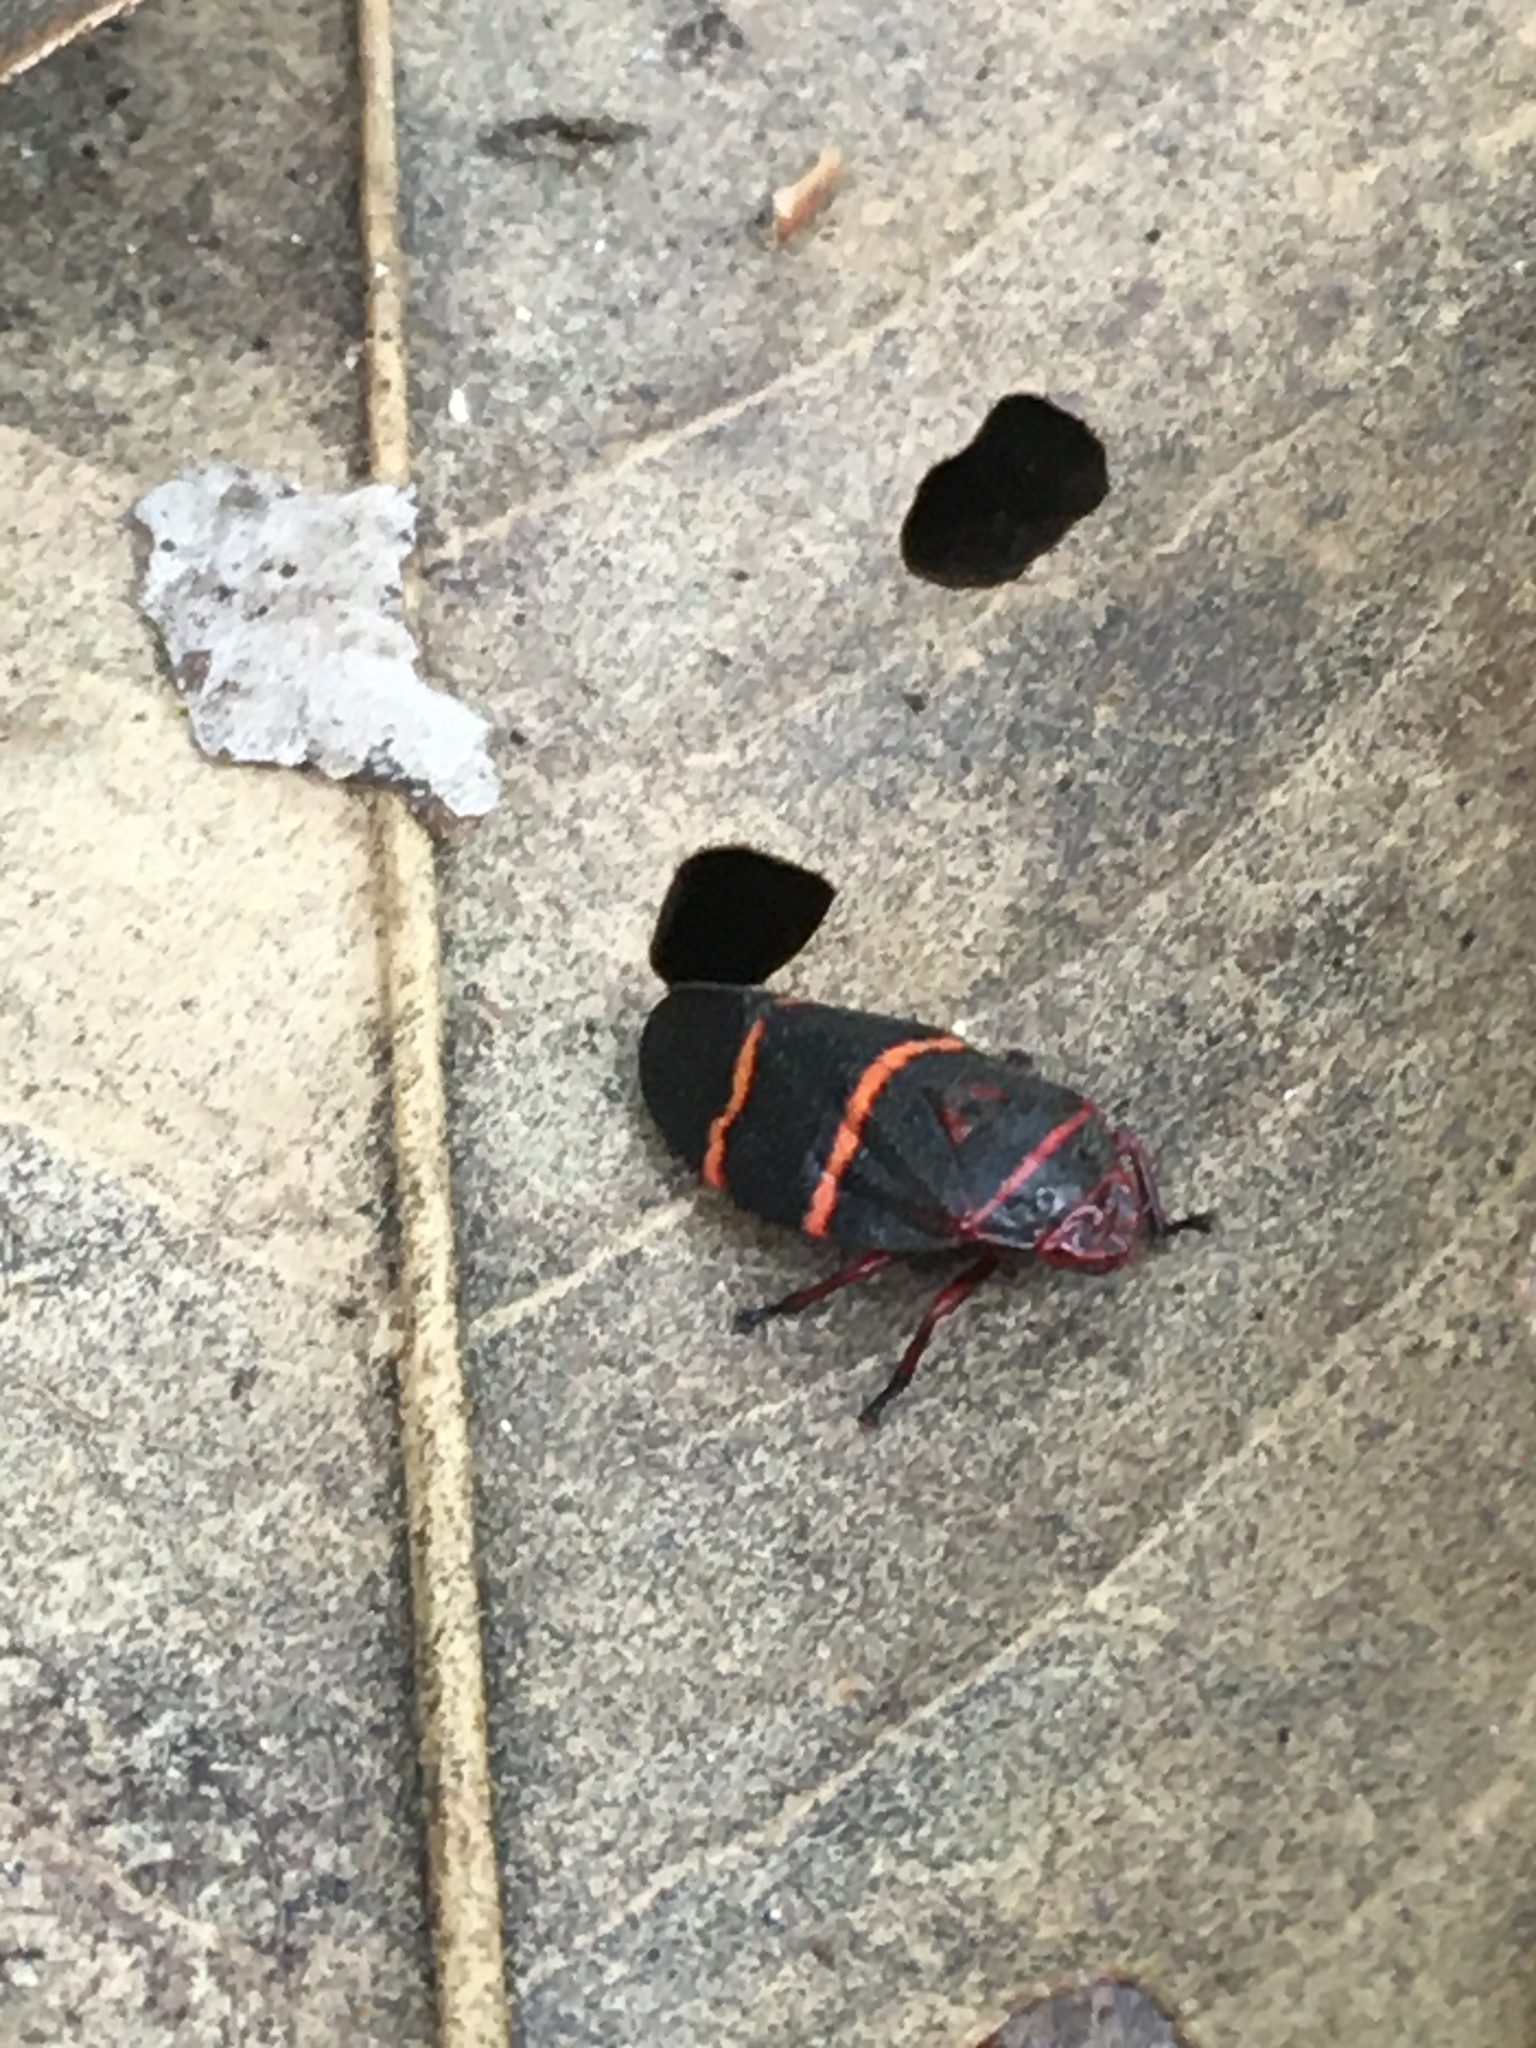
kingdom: Animalia
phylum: Arthropoda
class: Insecta
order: Hemiptera
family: Cercopidae
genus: Prosapia
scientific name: Prosapia bicincta
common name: Twolined spittlebug
